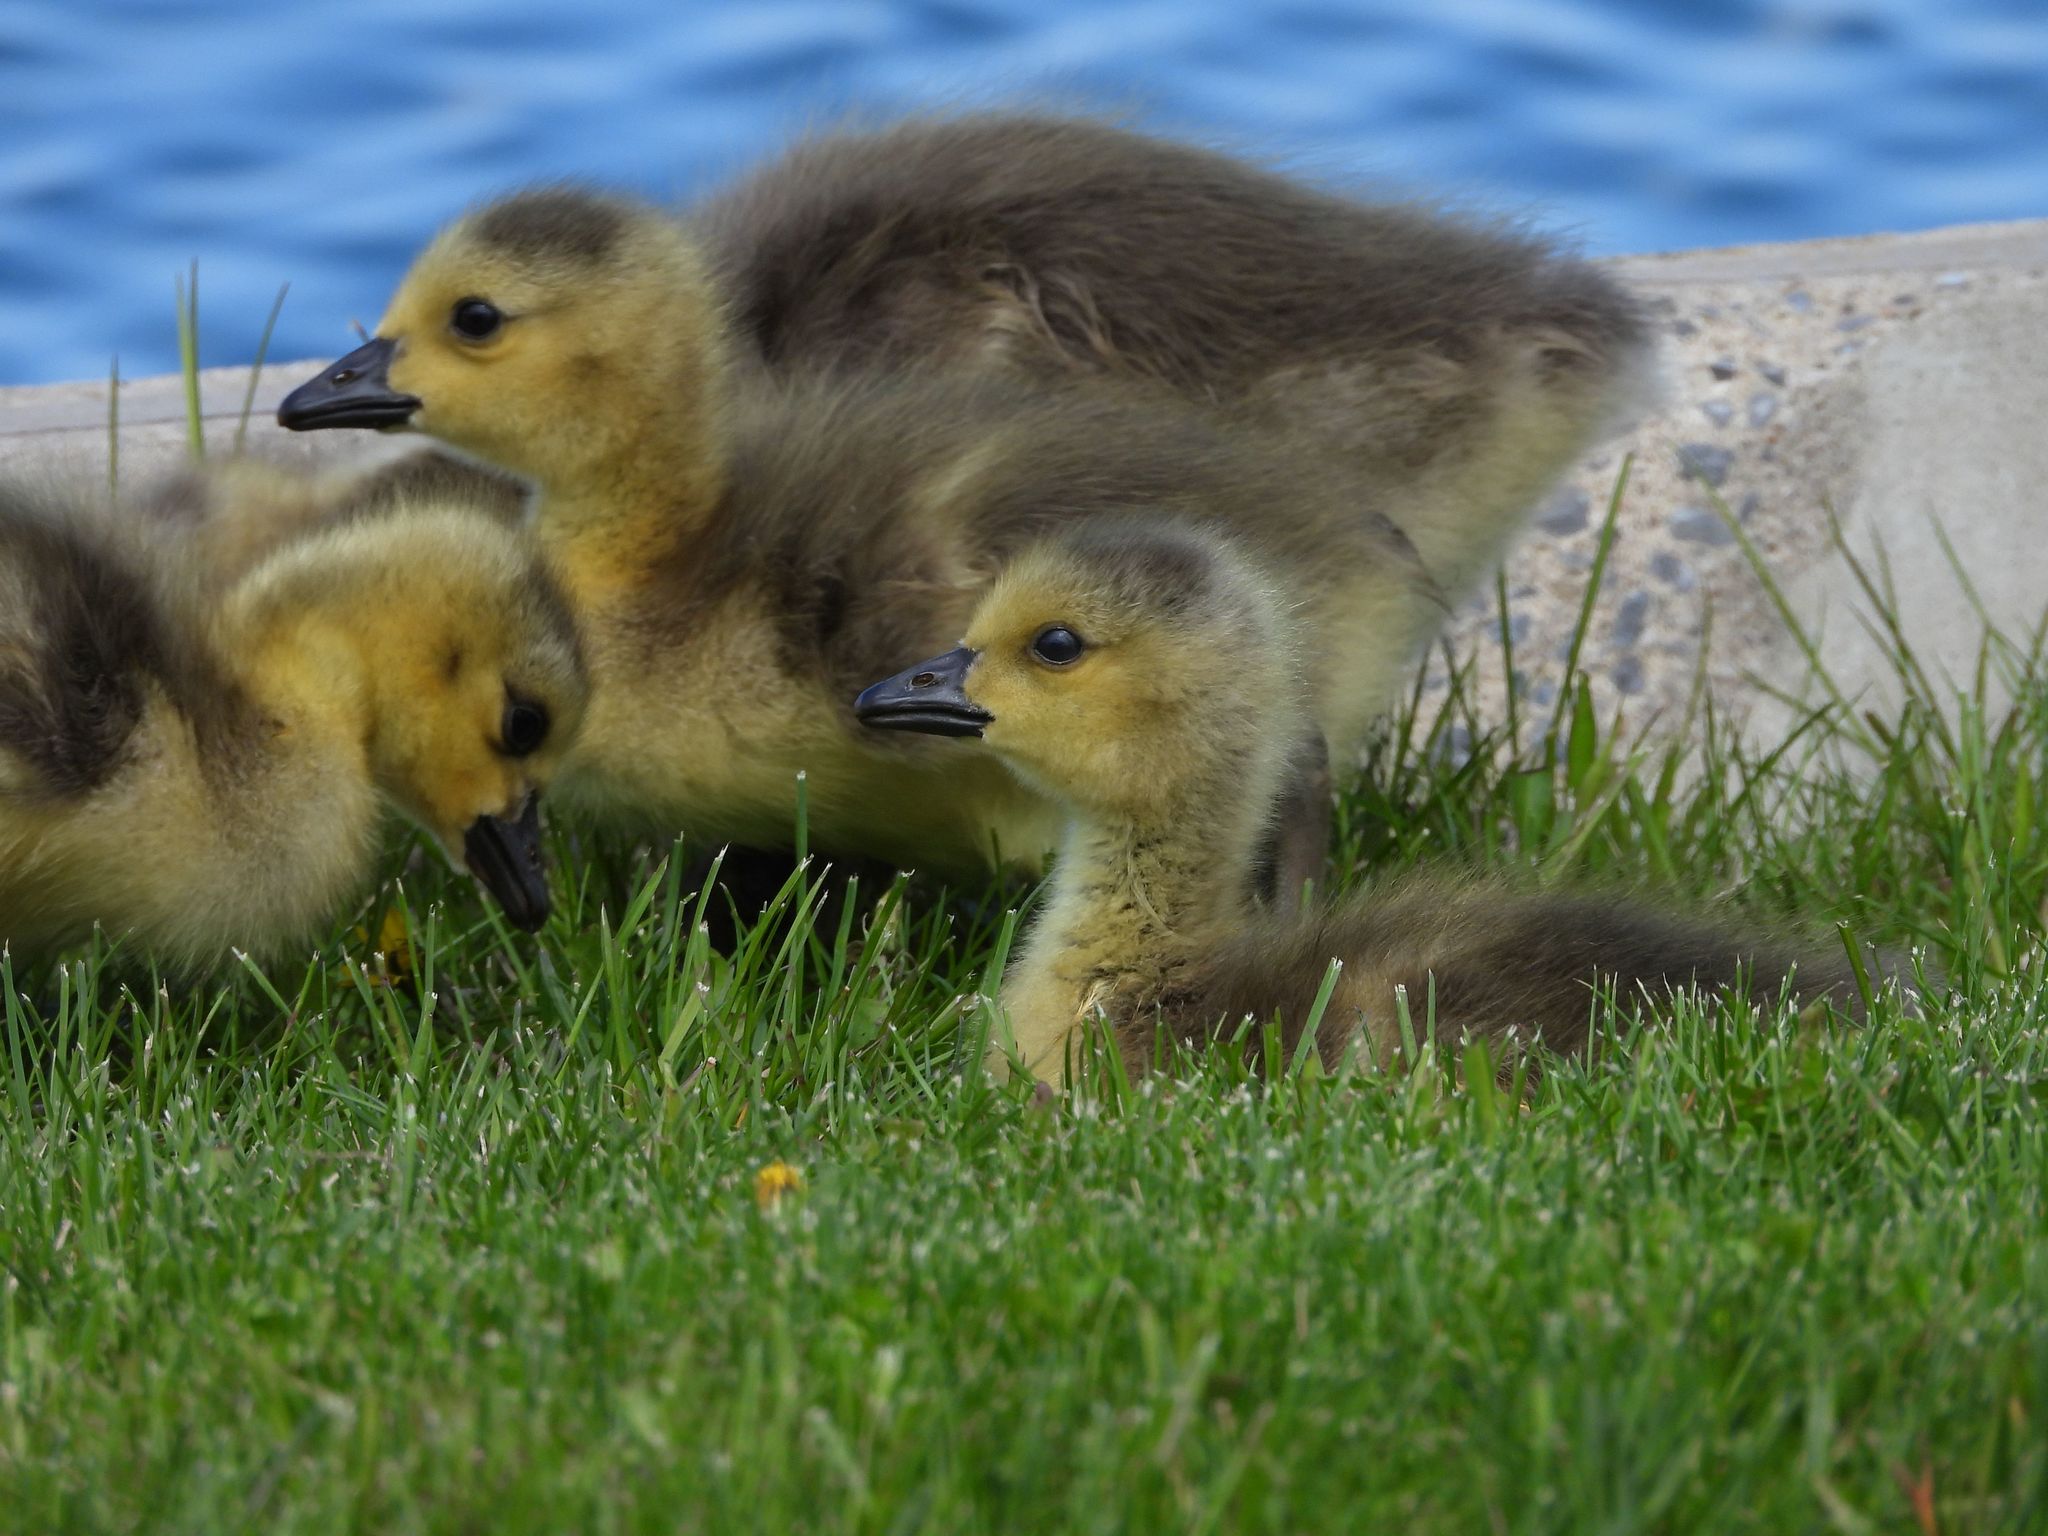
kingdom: Animalia
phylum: Chordata
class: Aves
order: Anseriformes
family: Anatidae
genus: Branta
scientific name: Branta canadensis
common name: Canada goose
